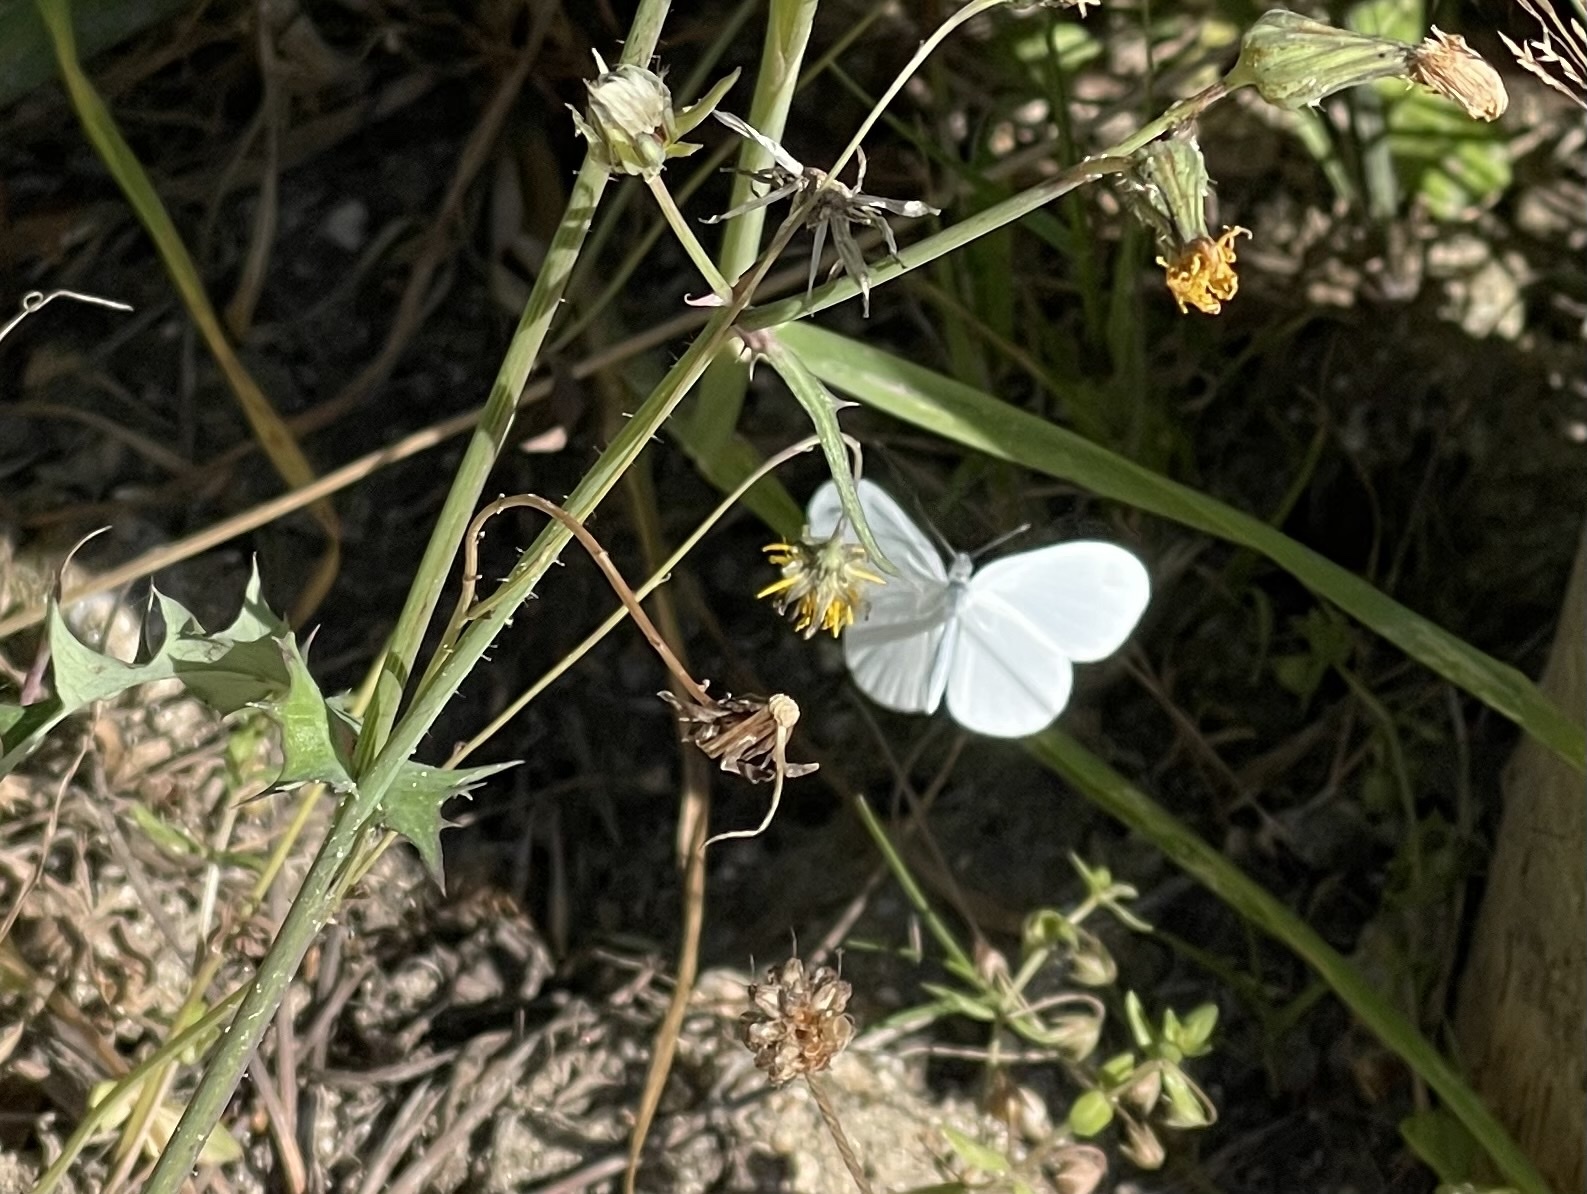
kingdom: Animalia
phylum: Arthropoda
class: Insecta
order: Lepidoptera
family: Pieridae
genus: Leptidea
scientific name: Leptidea sinapis
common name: Wood white
